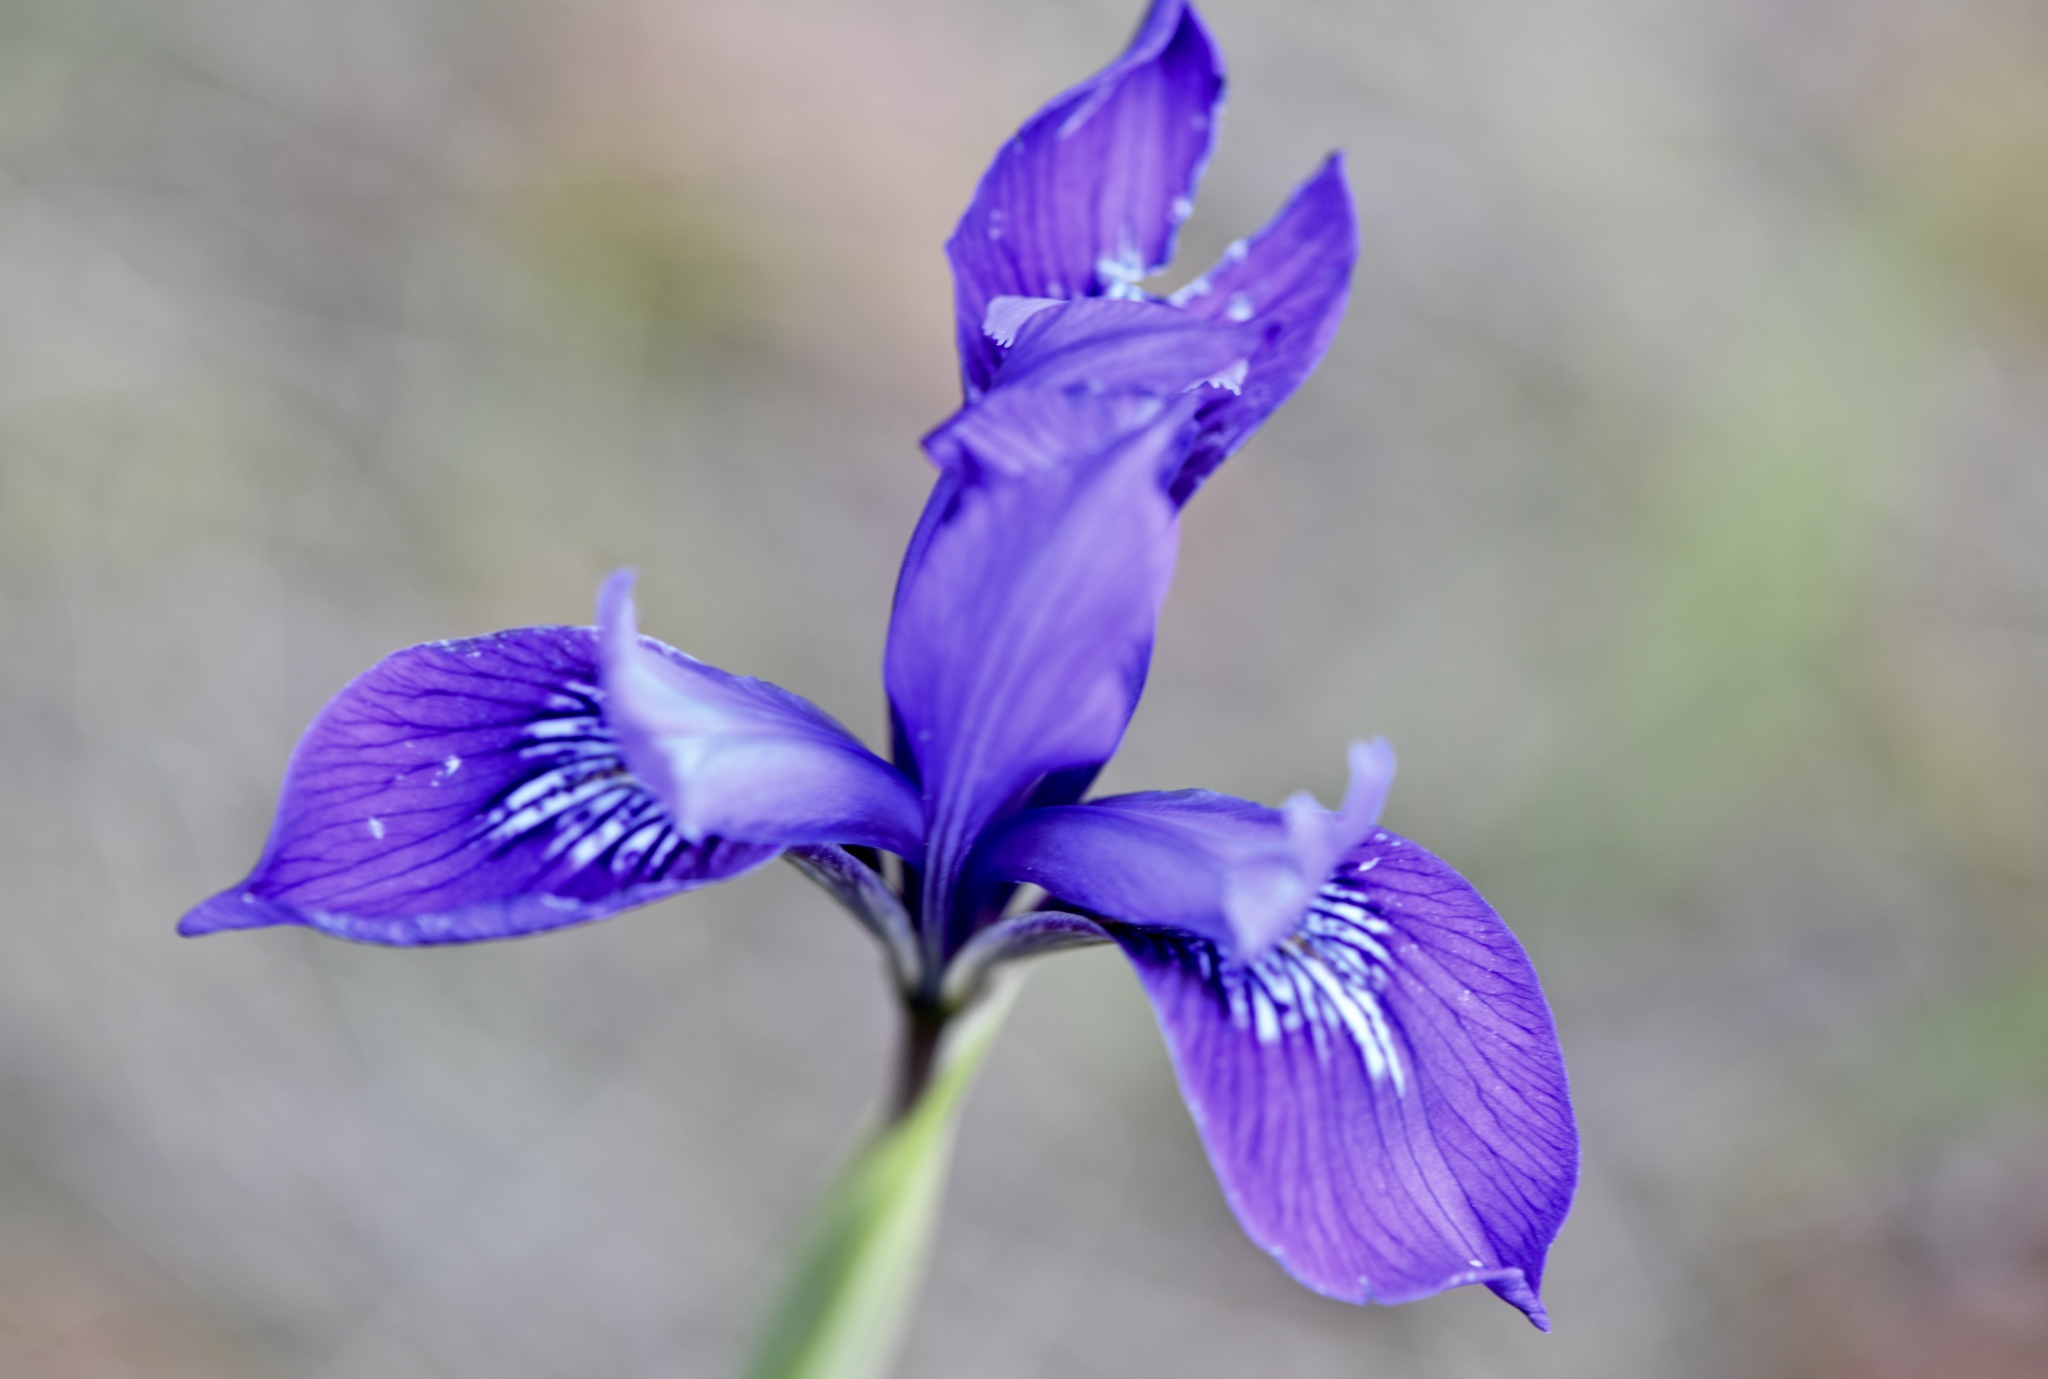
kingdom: Plantae
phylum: Tracheophyta
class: Liliopsida
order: Asparagales
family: Iridaceae
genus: Iris
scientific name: Iris douglasiana
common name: Marin iris
